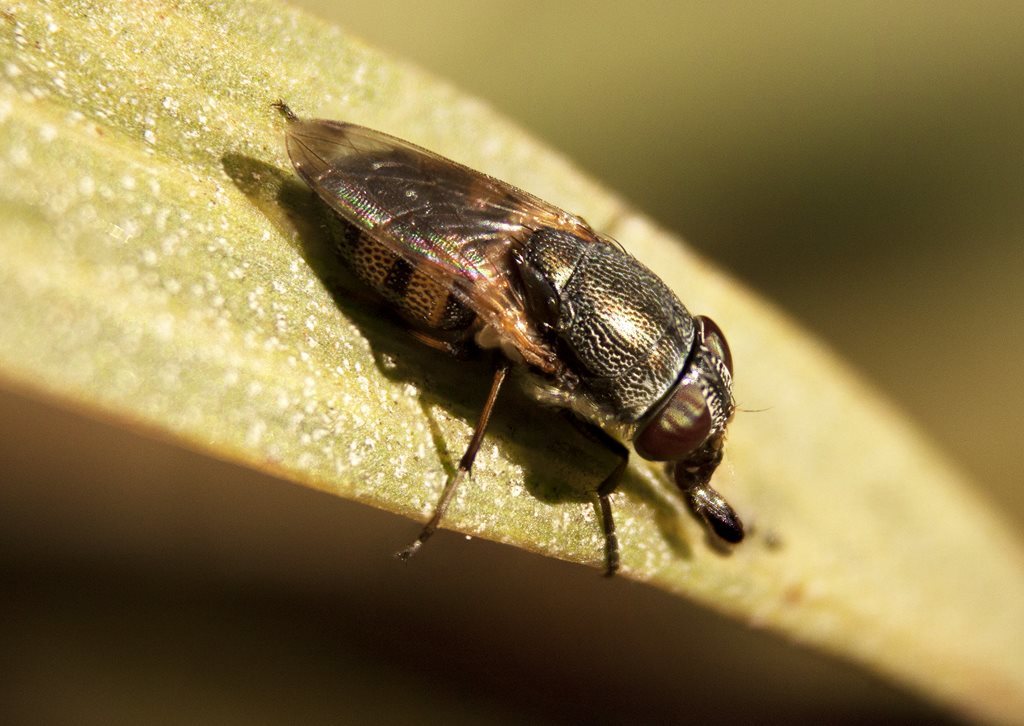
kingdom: Animalia
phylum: Arthropoda
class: Insecta
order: Diptera
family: Calliphoridae
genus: Stomorhina
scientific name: Stomorhina discolor
